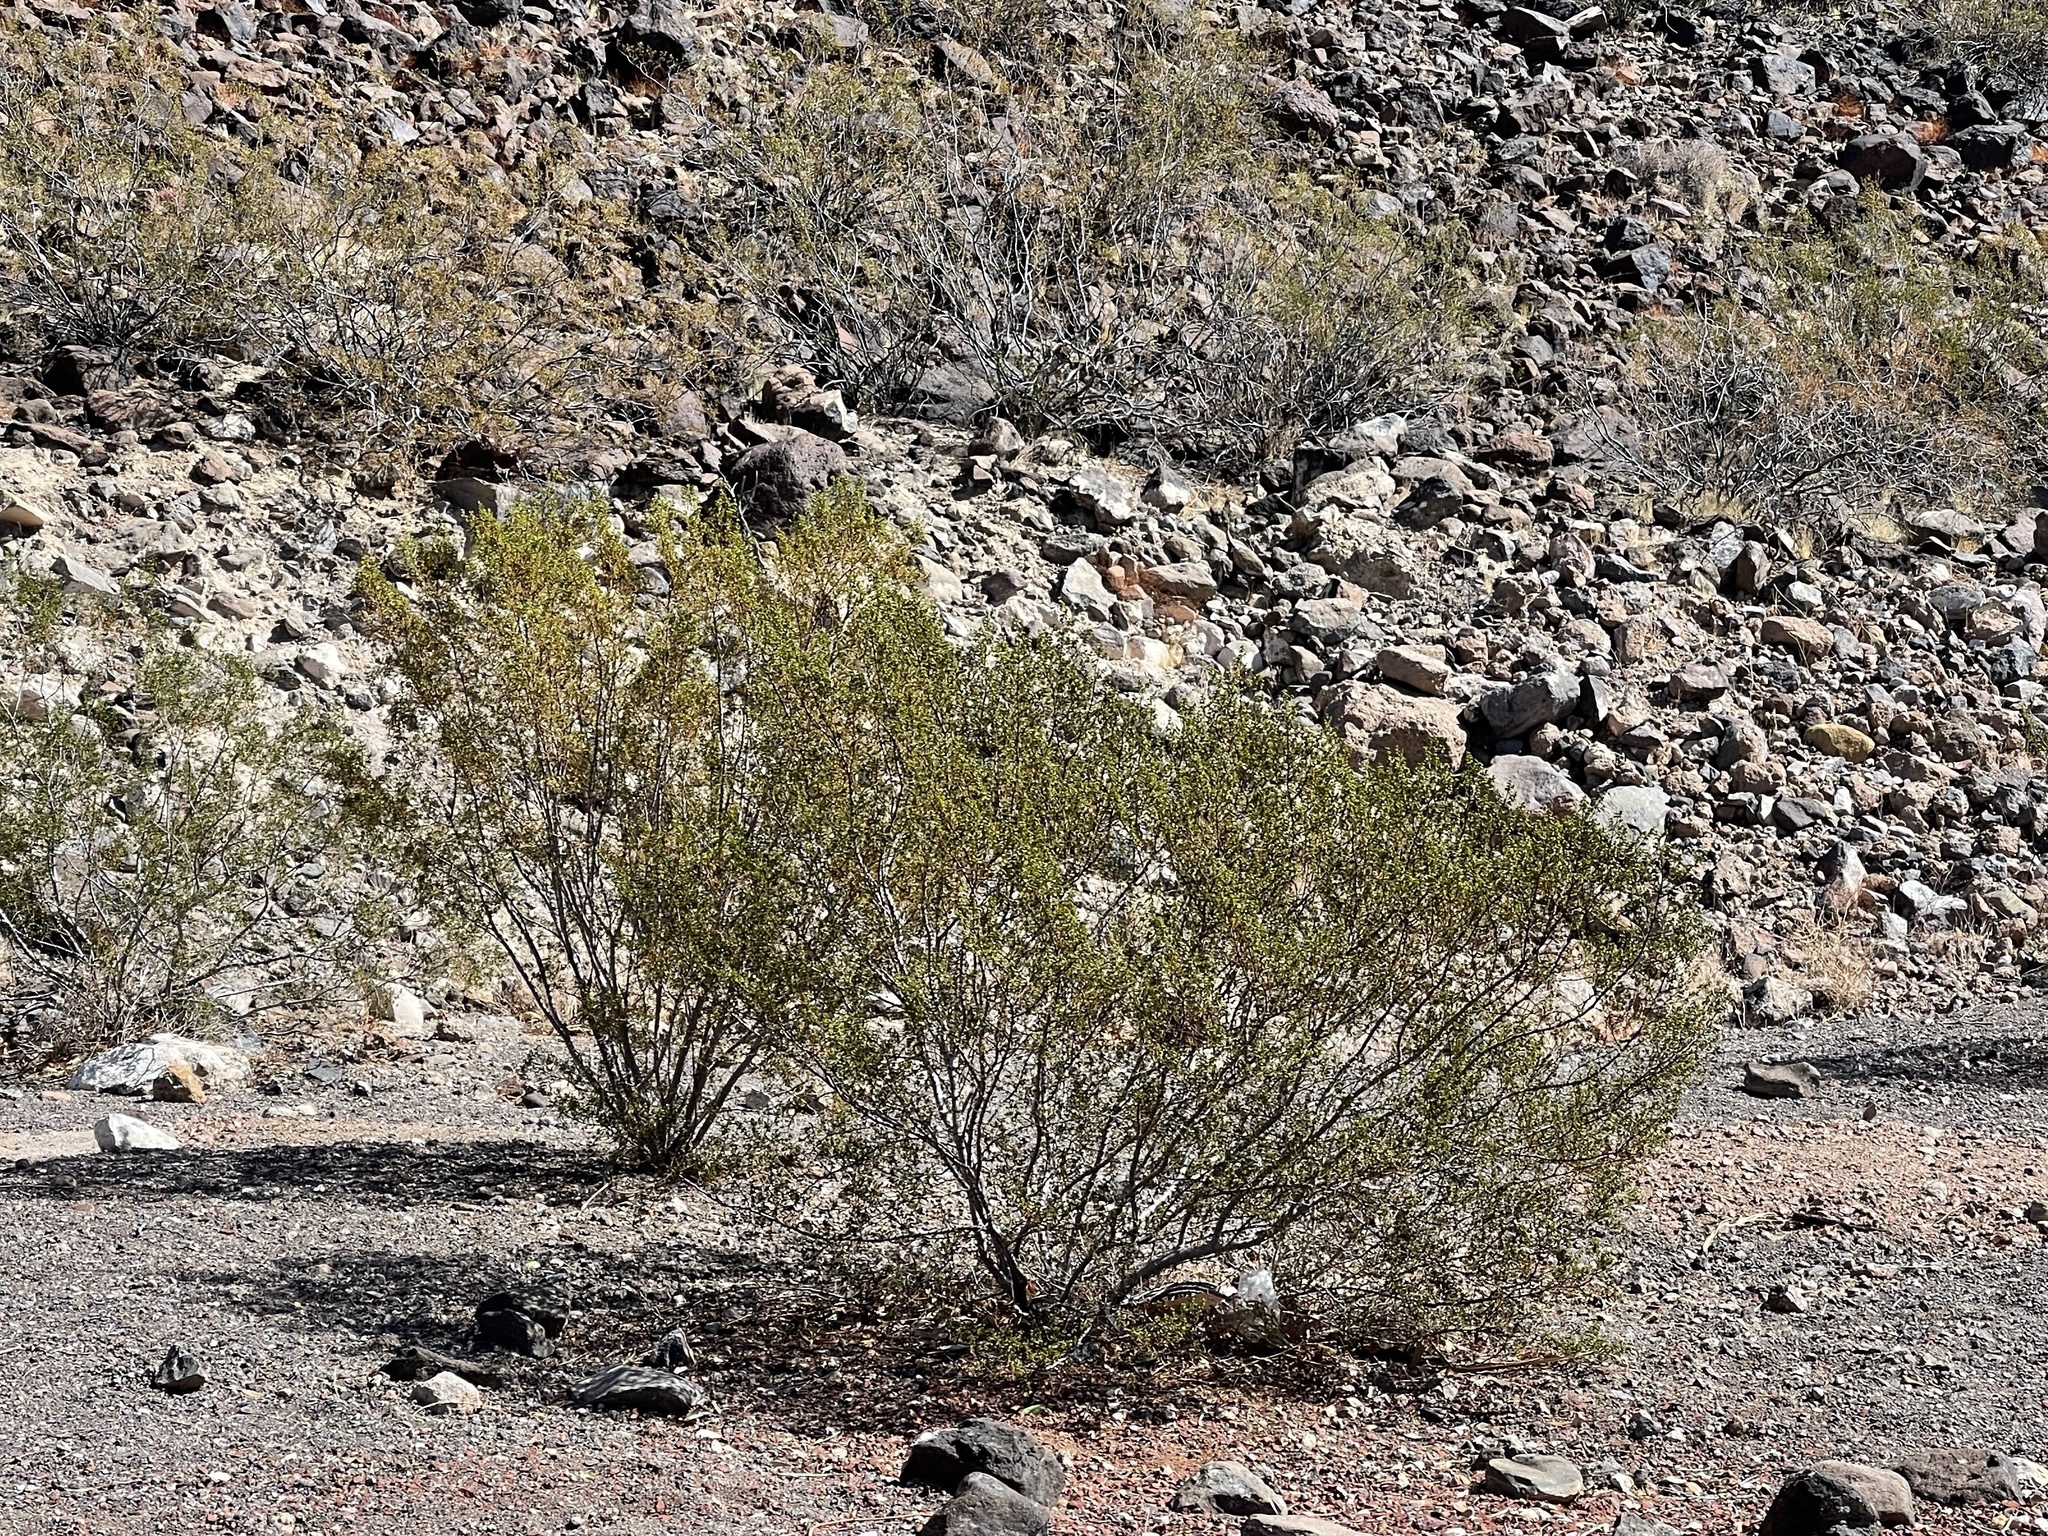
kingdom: Plantae
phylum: Tracheophyta
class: Magnoliopsida
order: Zygophyllales
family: Zygophyllaceae
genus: Larrea
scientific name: Larrea tridentata
